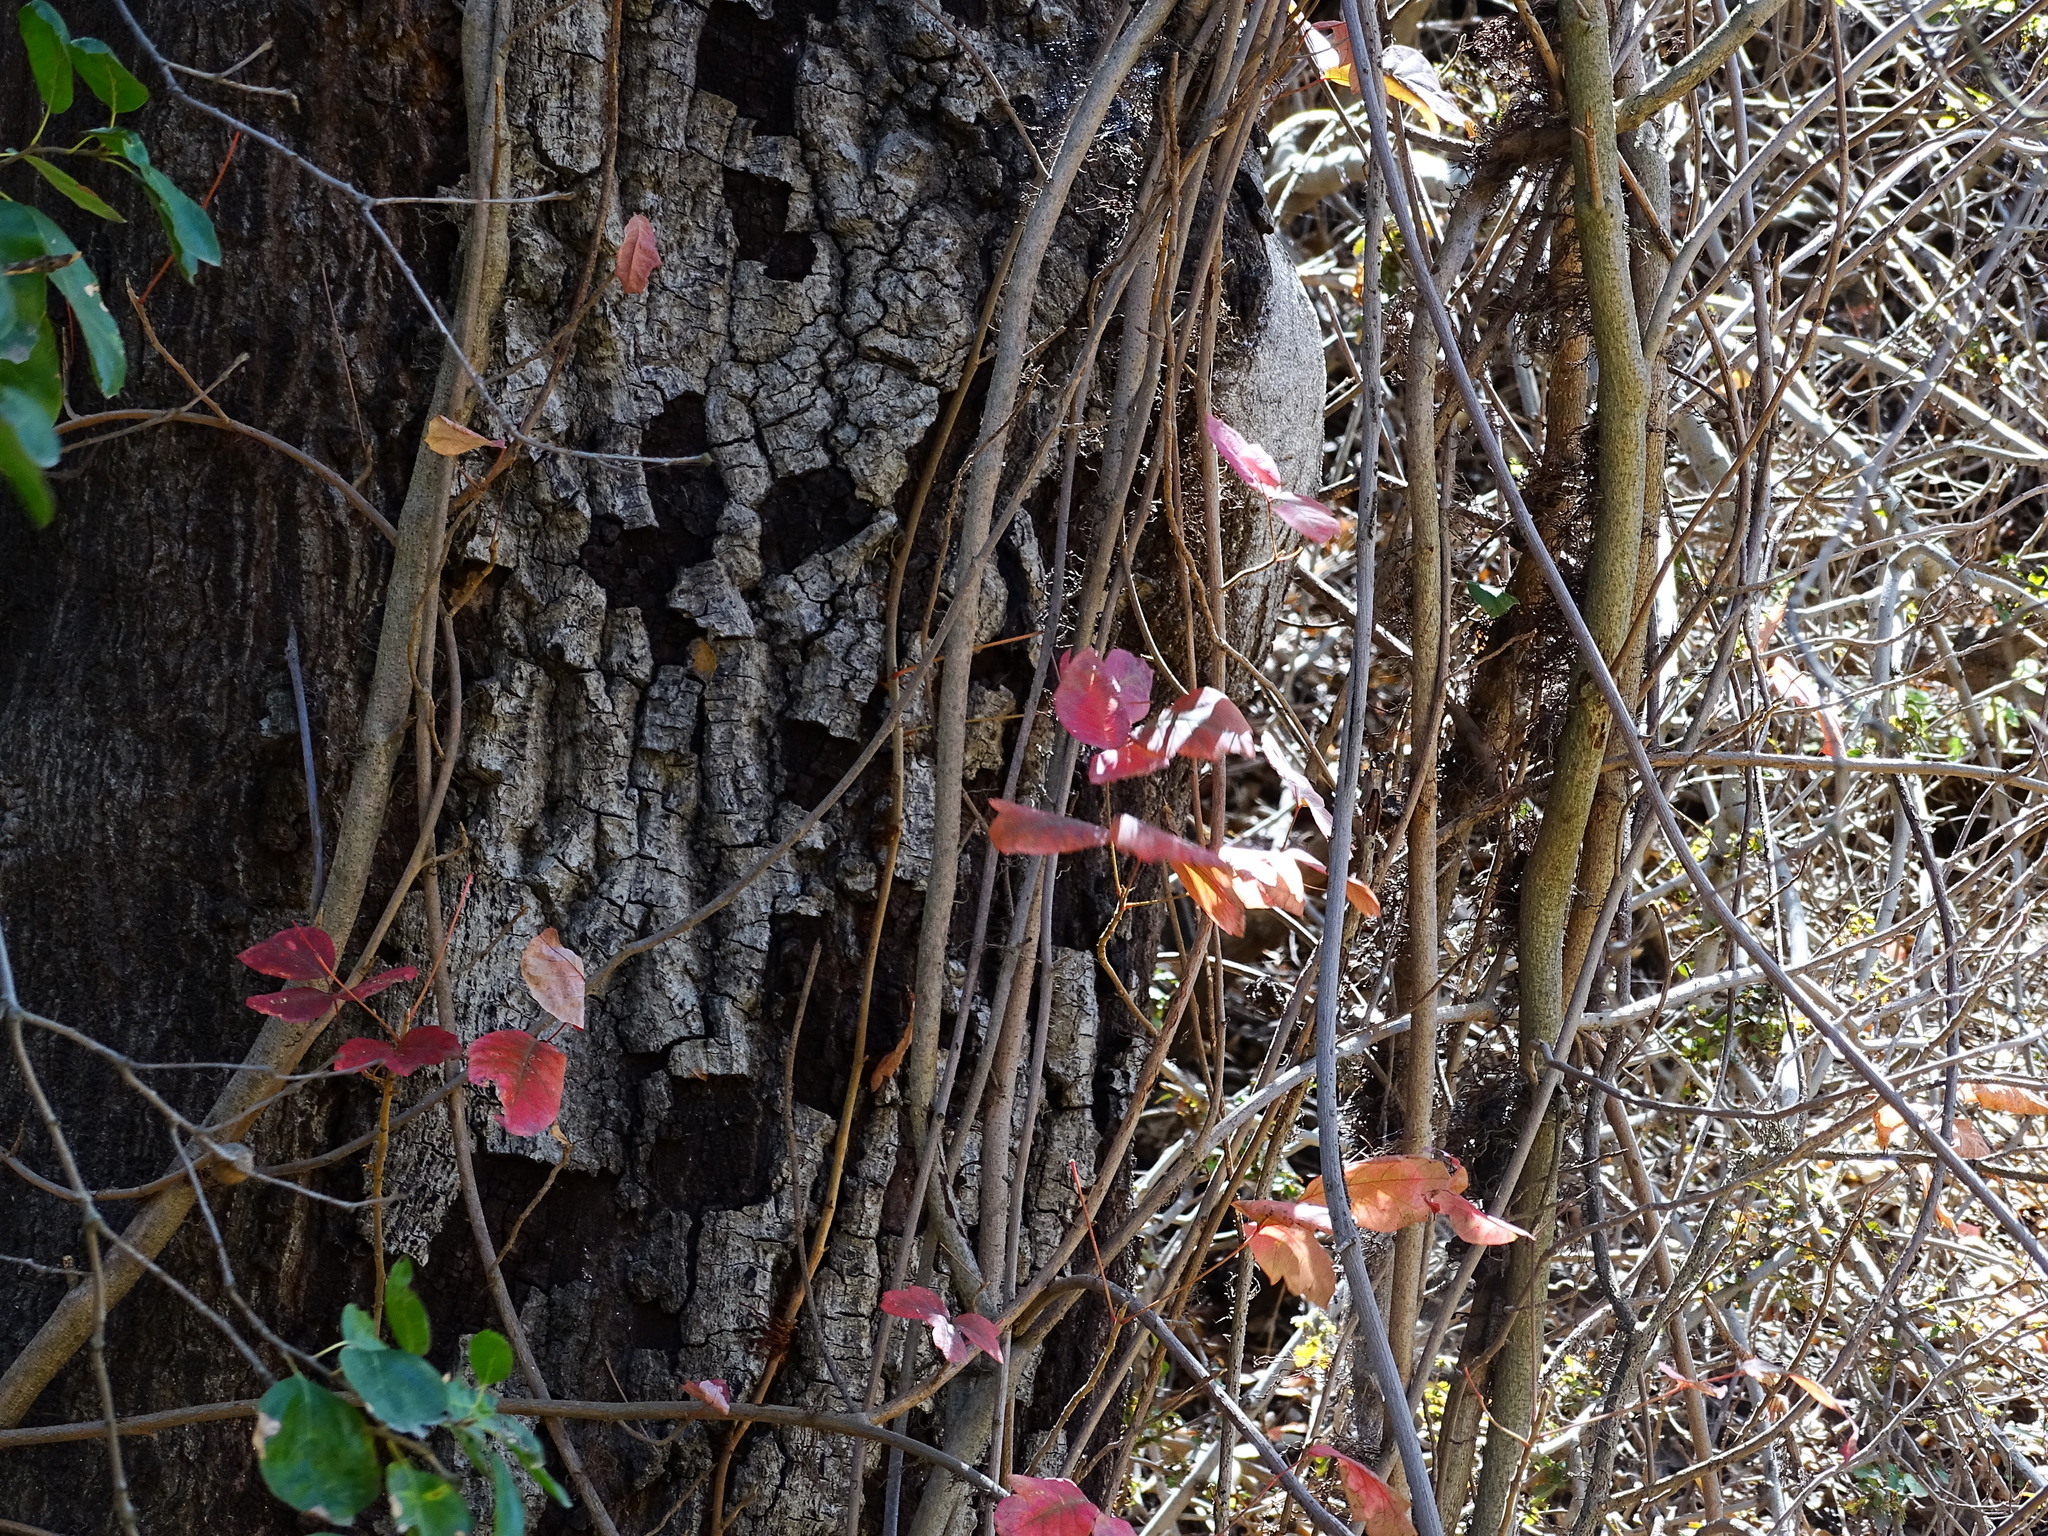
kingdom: Plantae
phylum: Tracheophyta
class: Magnoliopsida
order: Sapindales
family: Anacardiaceae
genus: Toxicodendron
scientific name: Toxicodendron diversilobum
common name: Pacific poison-oak
